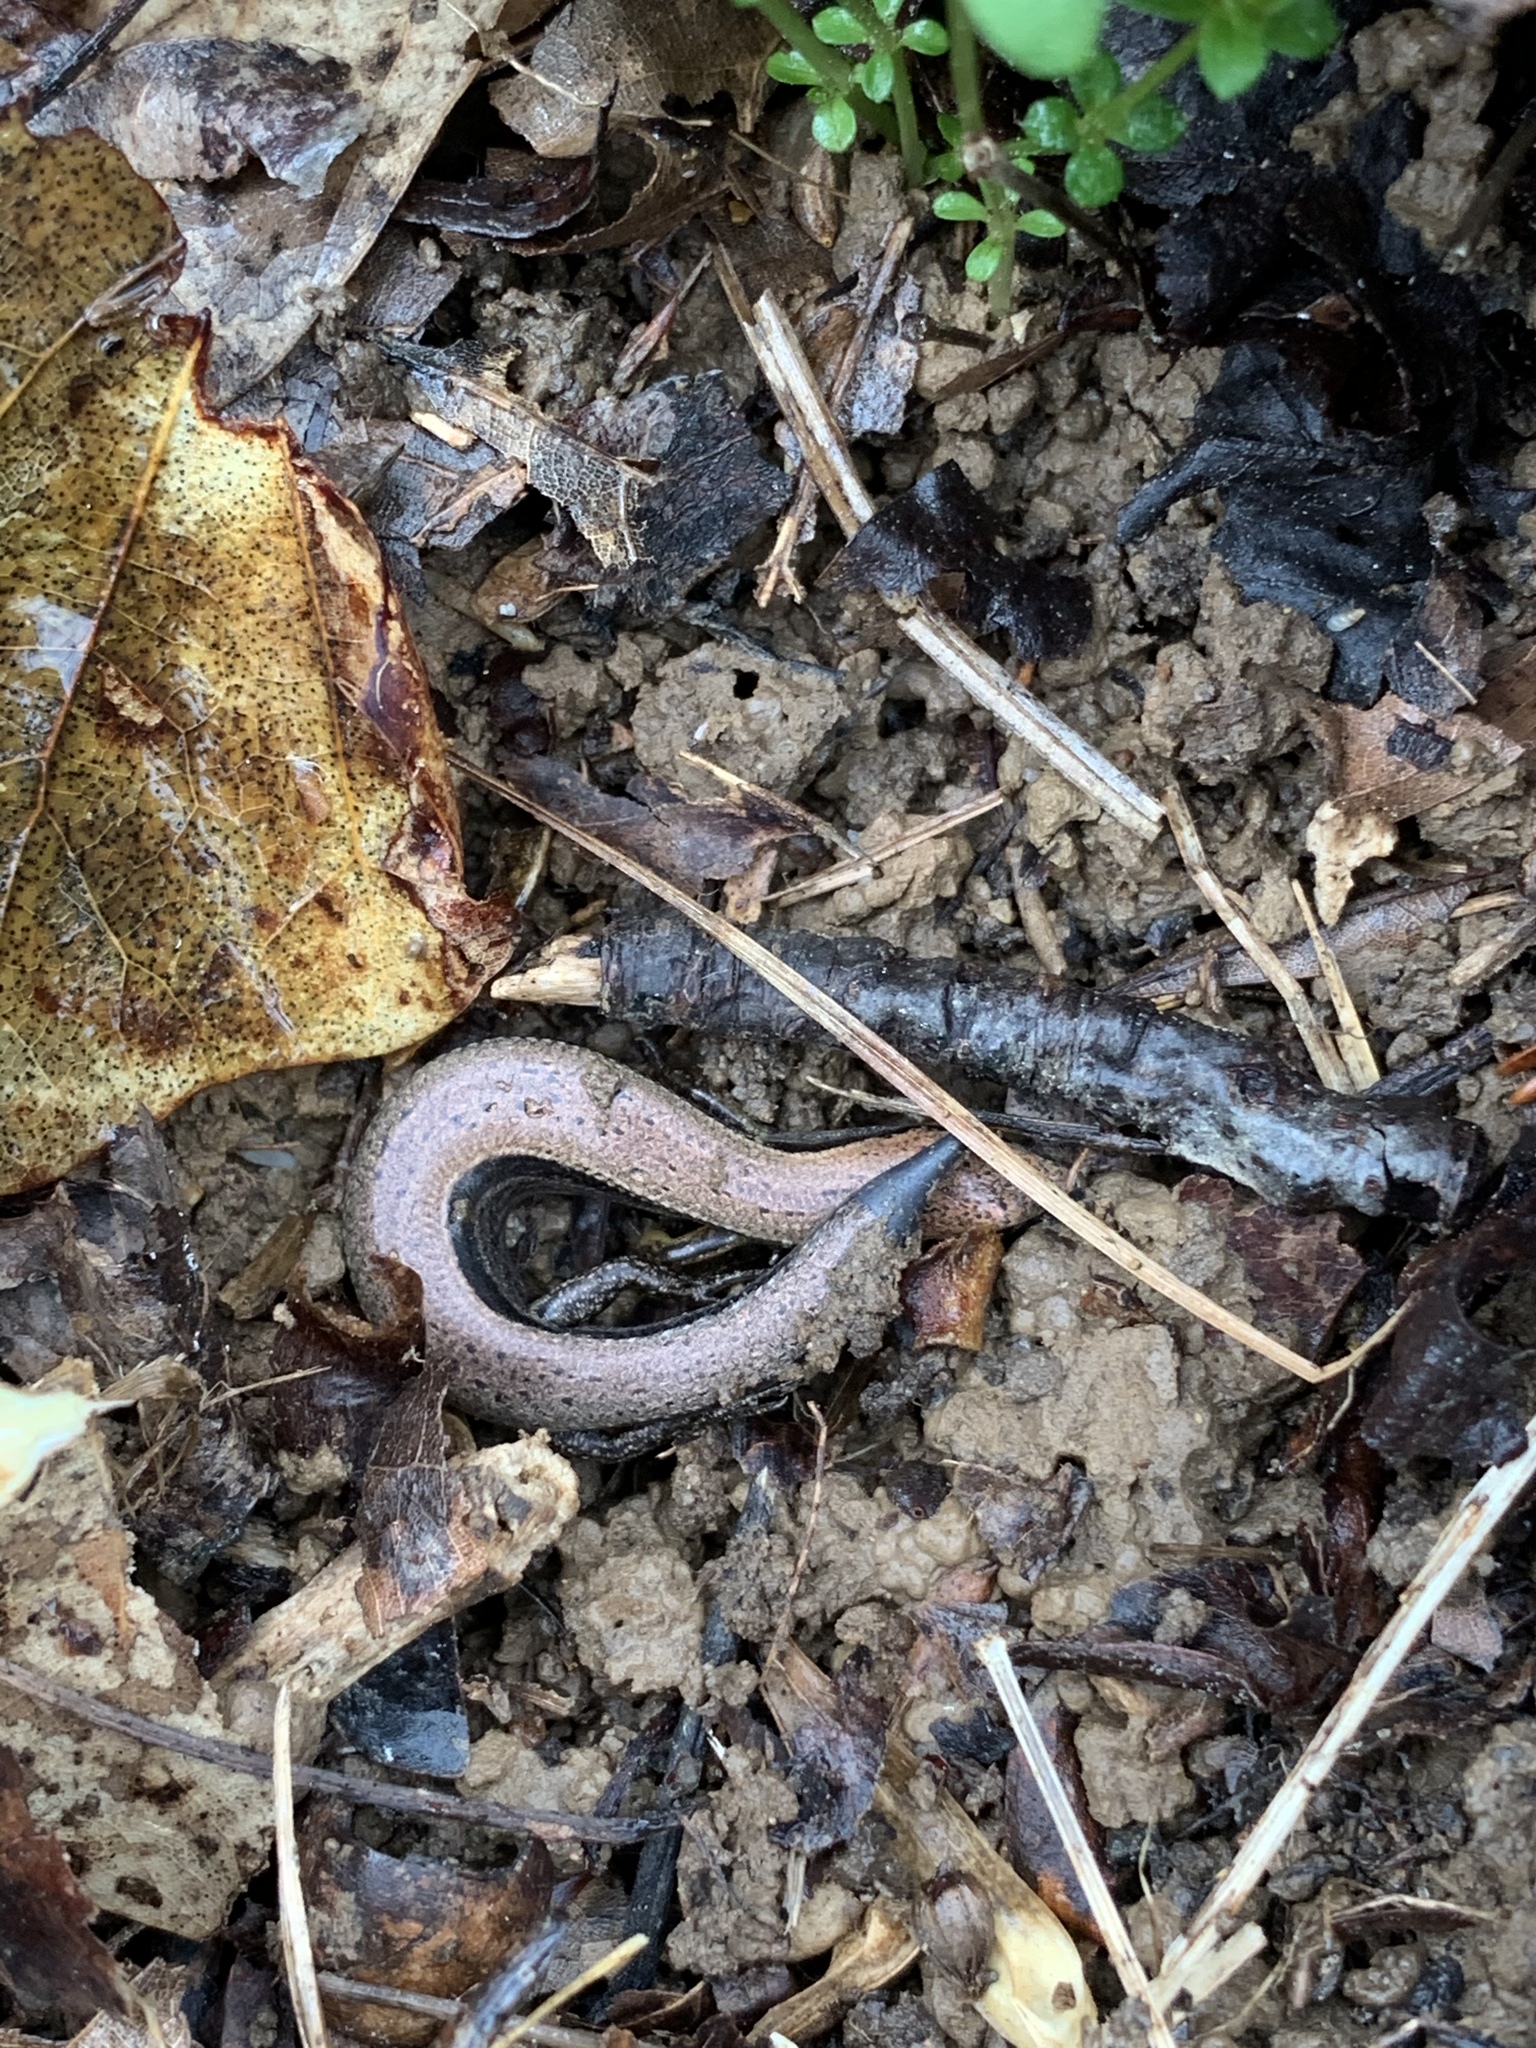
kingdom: Animalia
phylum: Chordata
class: Squamata
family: Scincidae
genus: Scincella
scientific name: Scincella lateralis
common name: Ground skink
